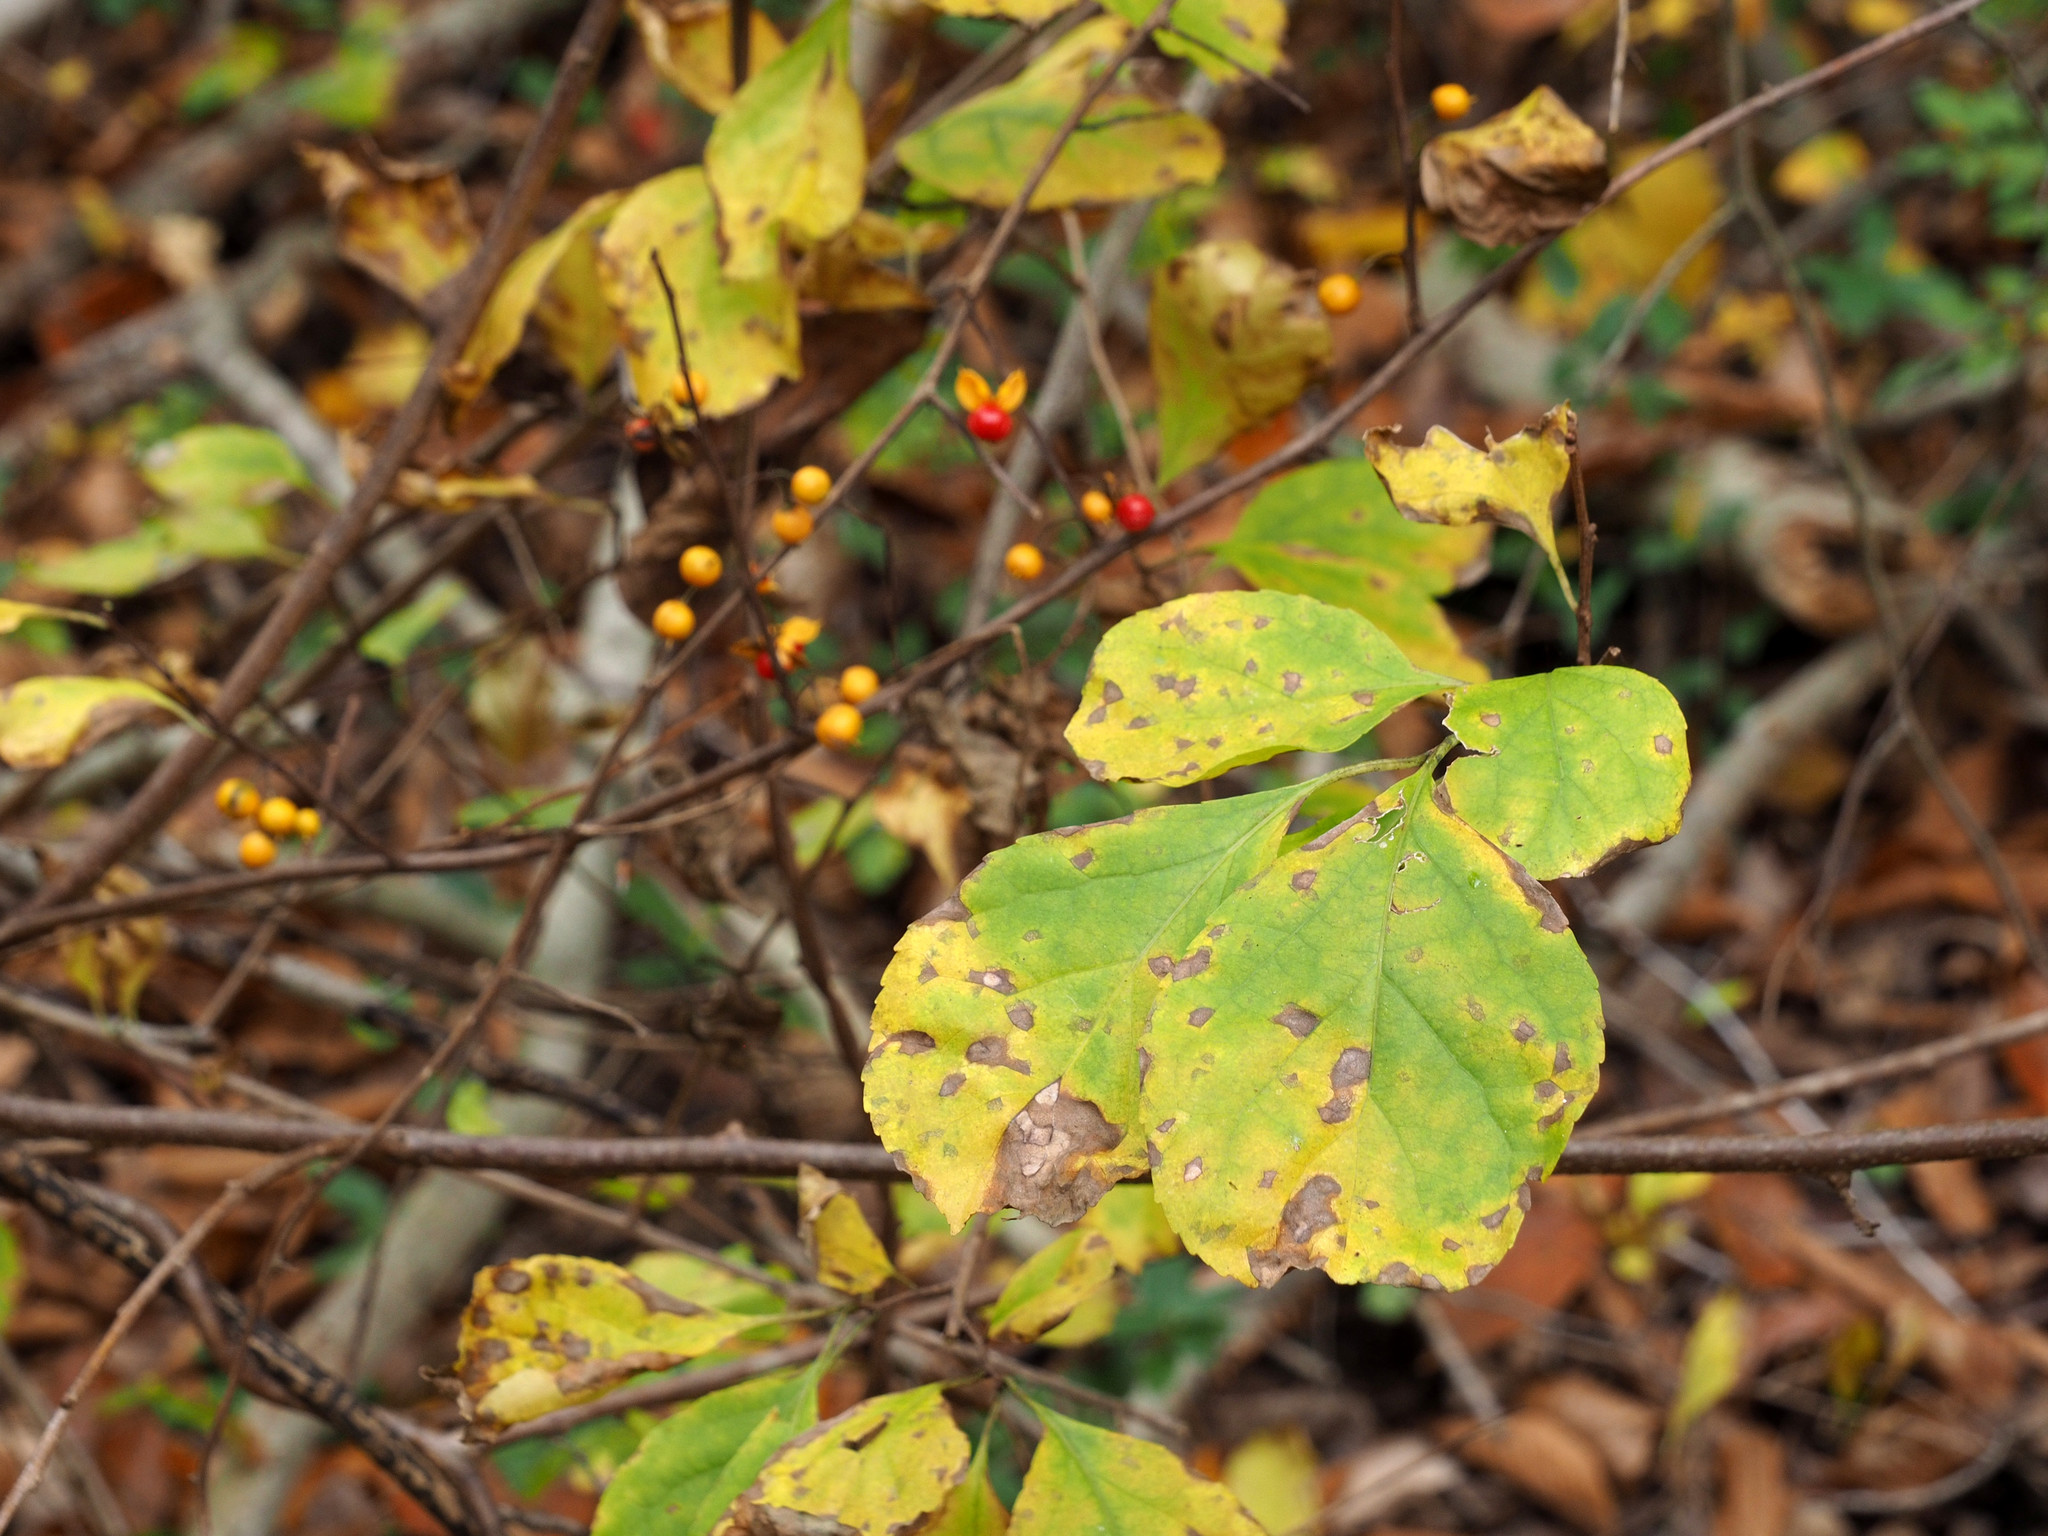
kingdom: Plantae
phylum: Tracheophyta
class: Magnoliopsida
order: Celastrales
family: Celastraceae
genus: Celastrus
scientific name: Celastrus orbiculatus
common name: Oriental bittersweet
